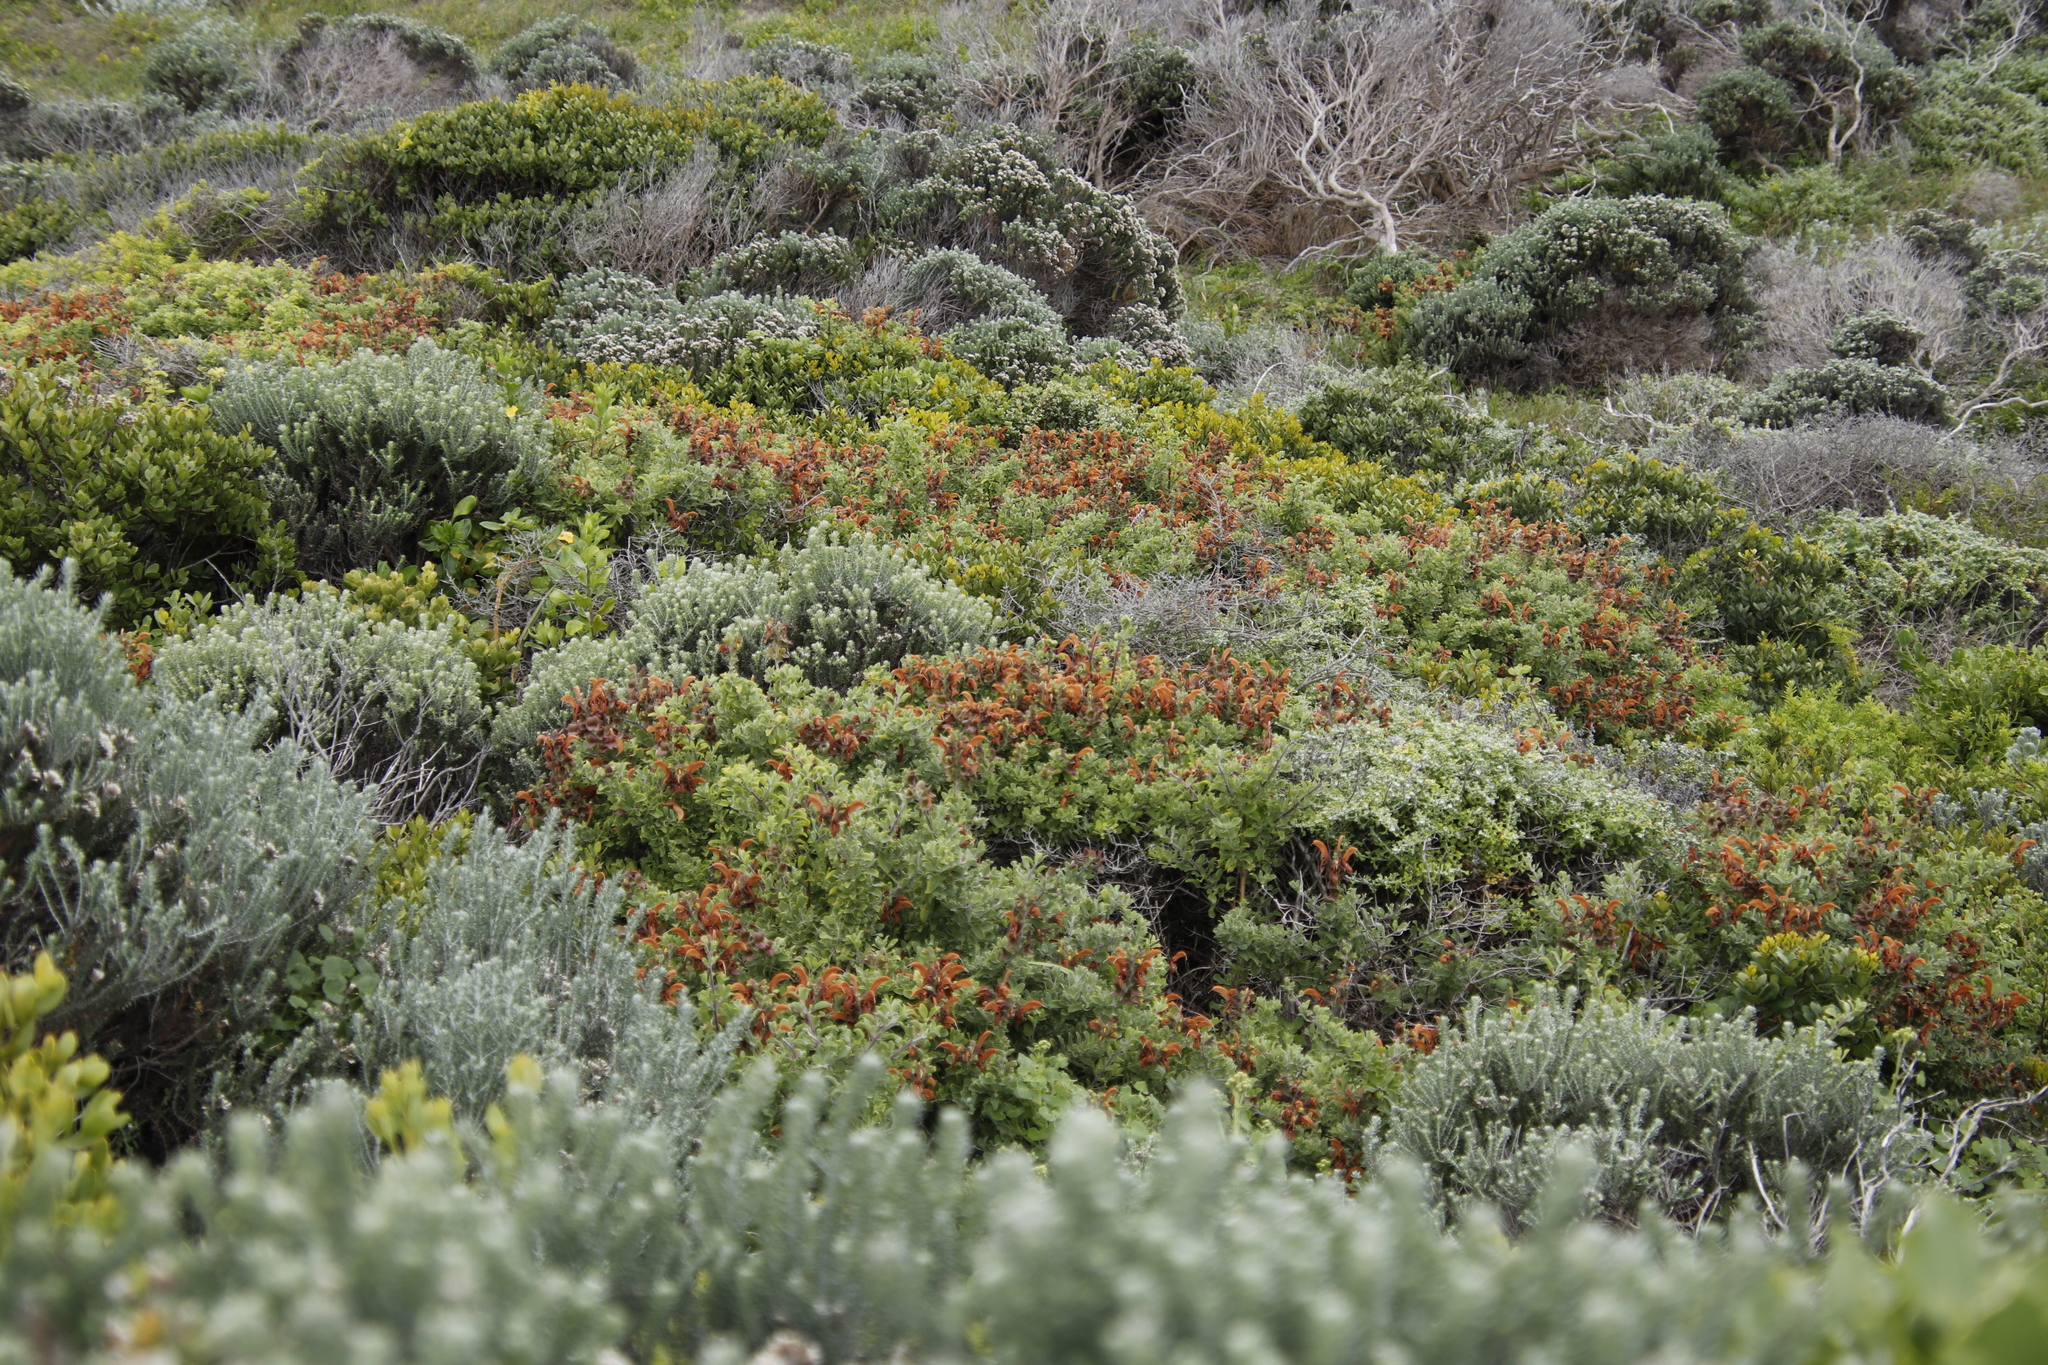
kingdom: Plantae
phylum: Tracheophyta
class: Magnoliopsida
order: Lamiales
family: Lamiaceae
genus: Salvia
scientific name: Salvia aurea
